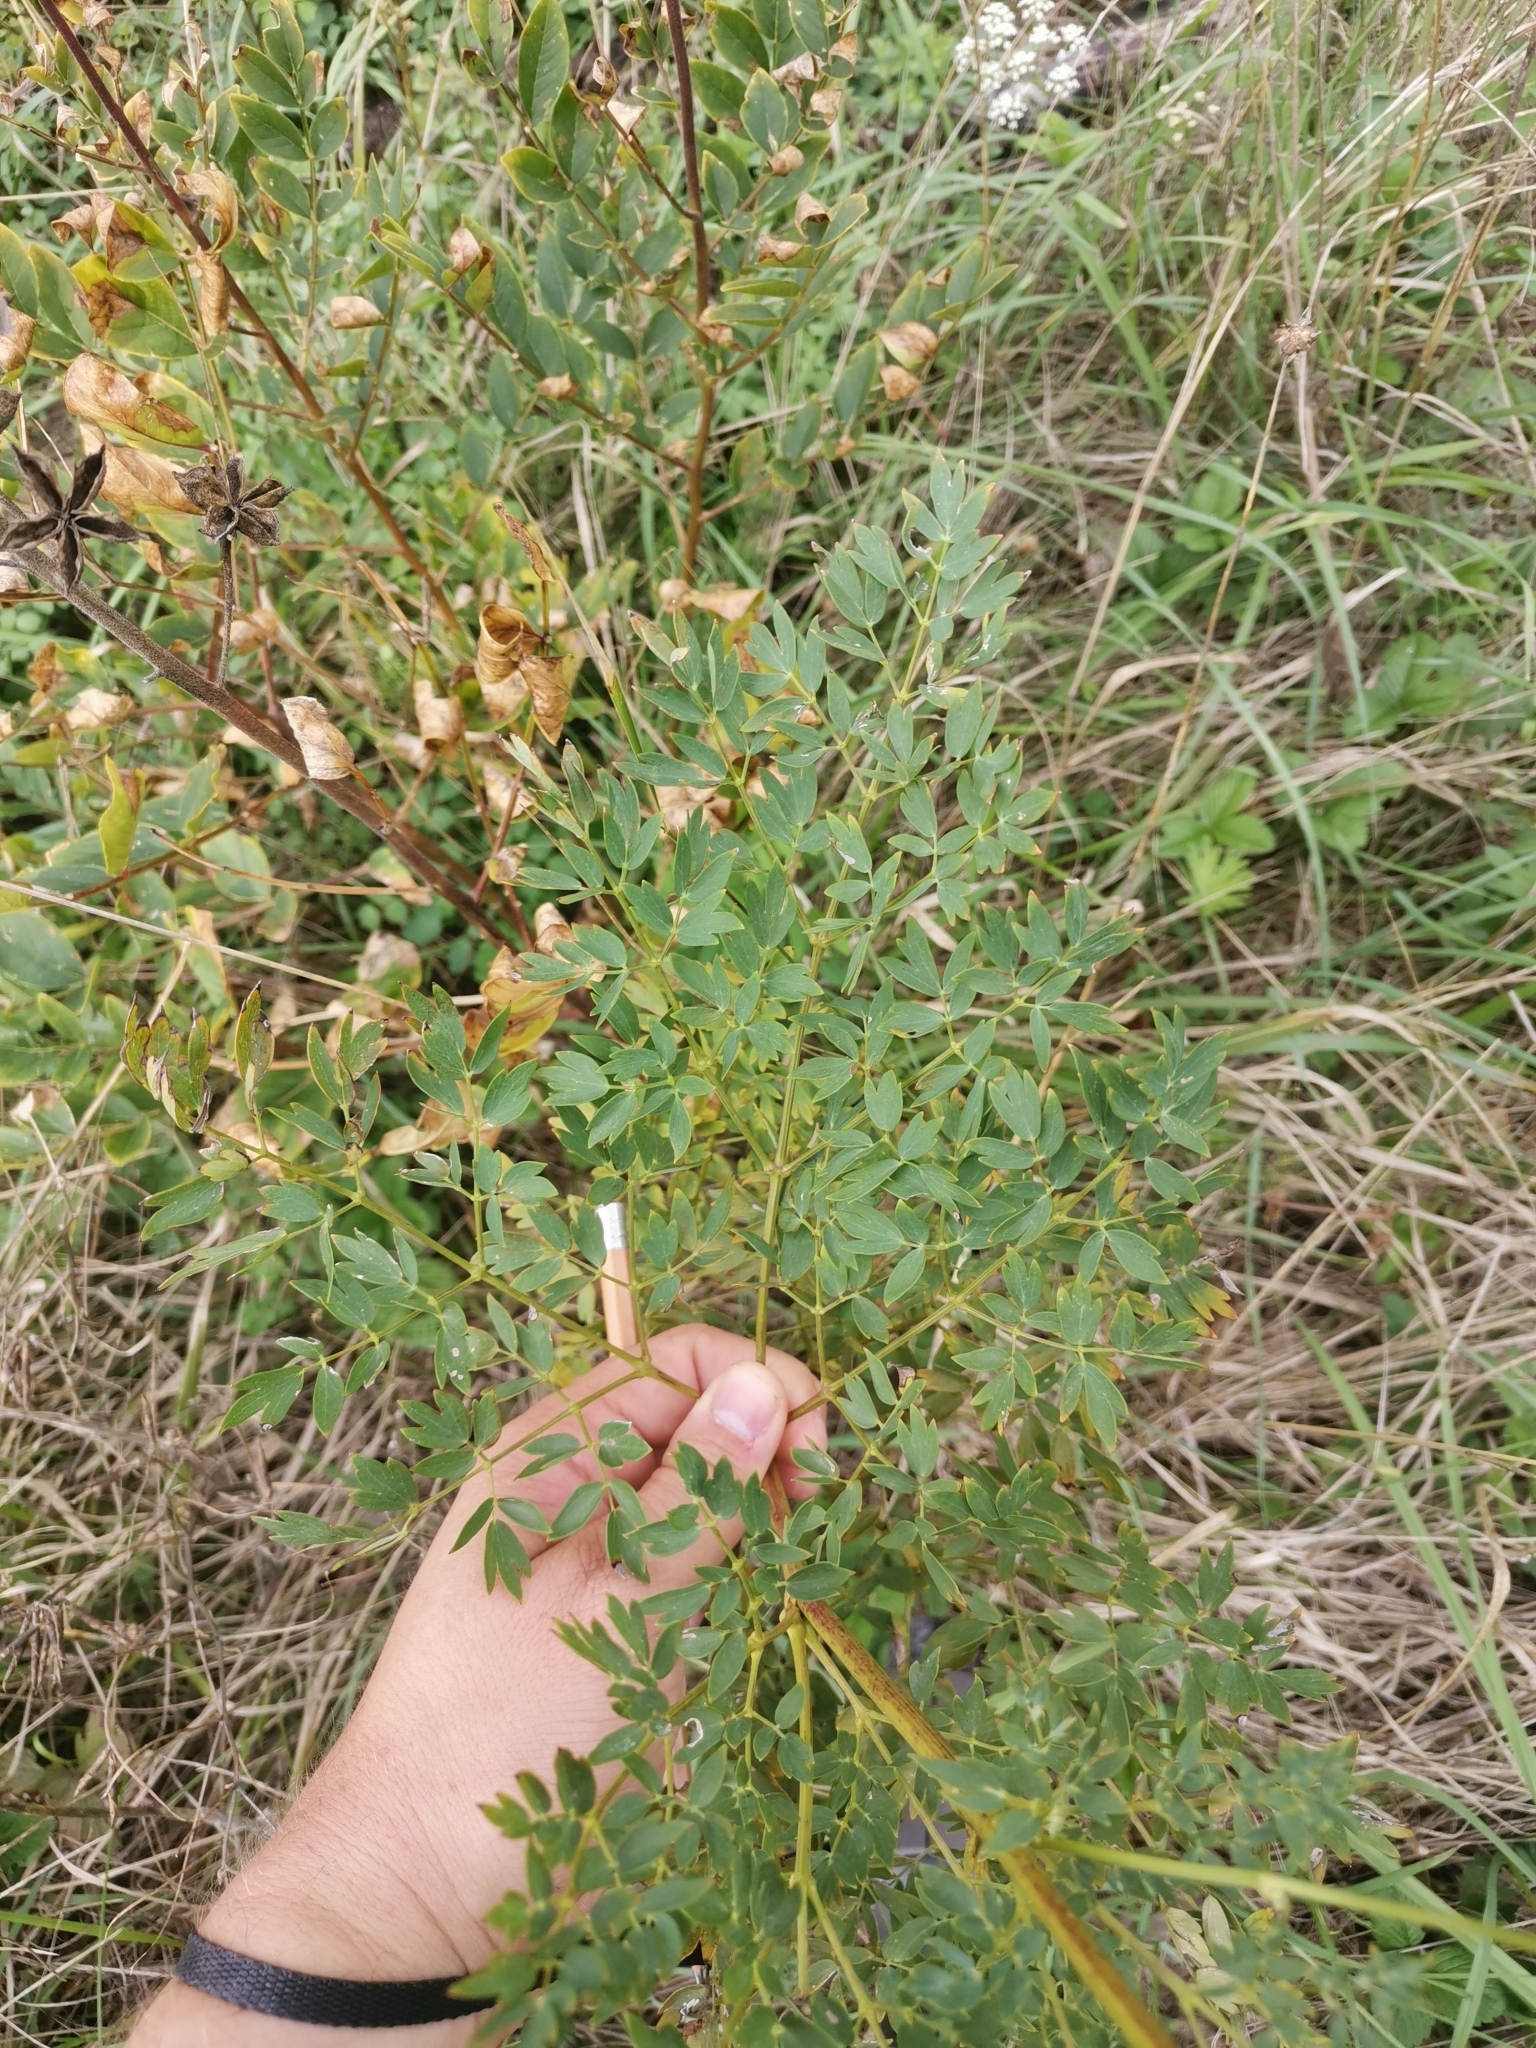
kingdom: Plantae
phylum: Tracheophyta
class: Magnoliopsida
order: Ranunculales
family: Ranunculaceae
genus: Thalictrum
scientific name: Thalictrum minus
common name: Lesser meadow-rue
